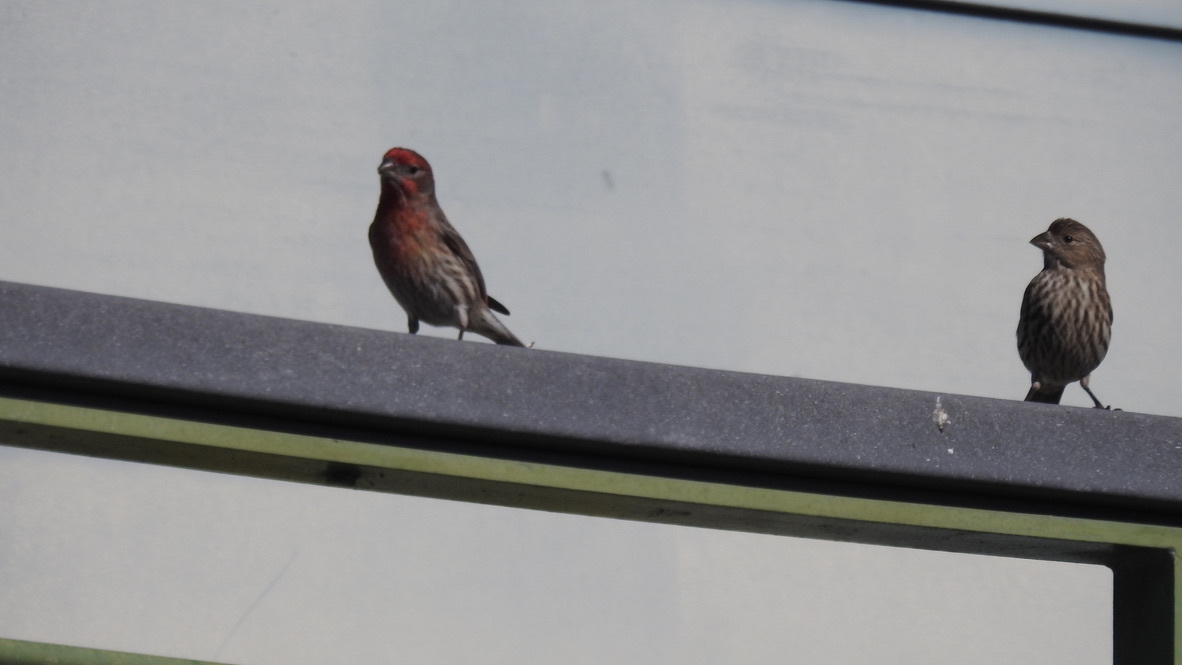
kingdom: Animalia
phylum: Chordata
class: Aves
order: Passeriformes
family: Fringillidae
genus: Haemorhous
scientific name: Haemorhous mexicanus
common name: House finch
